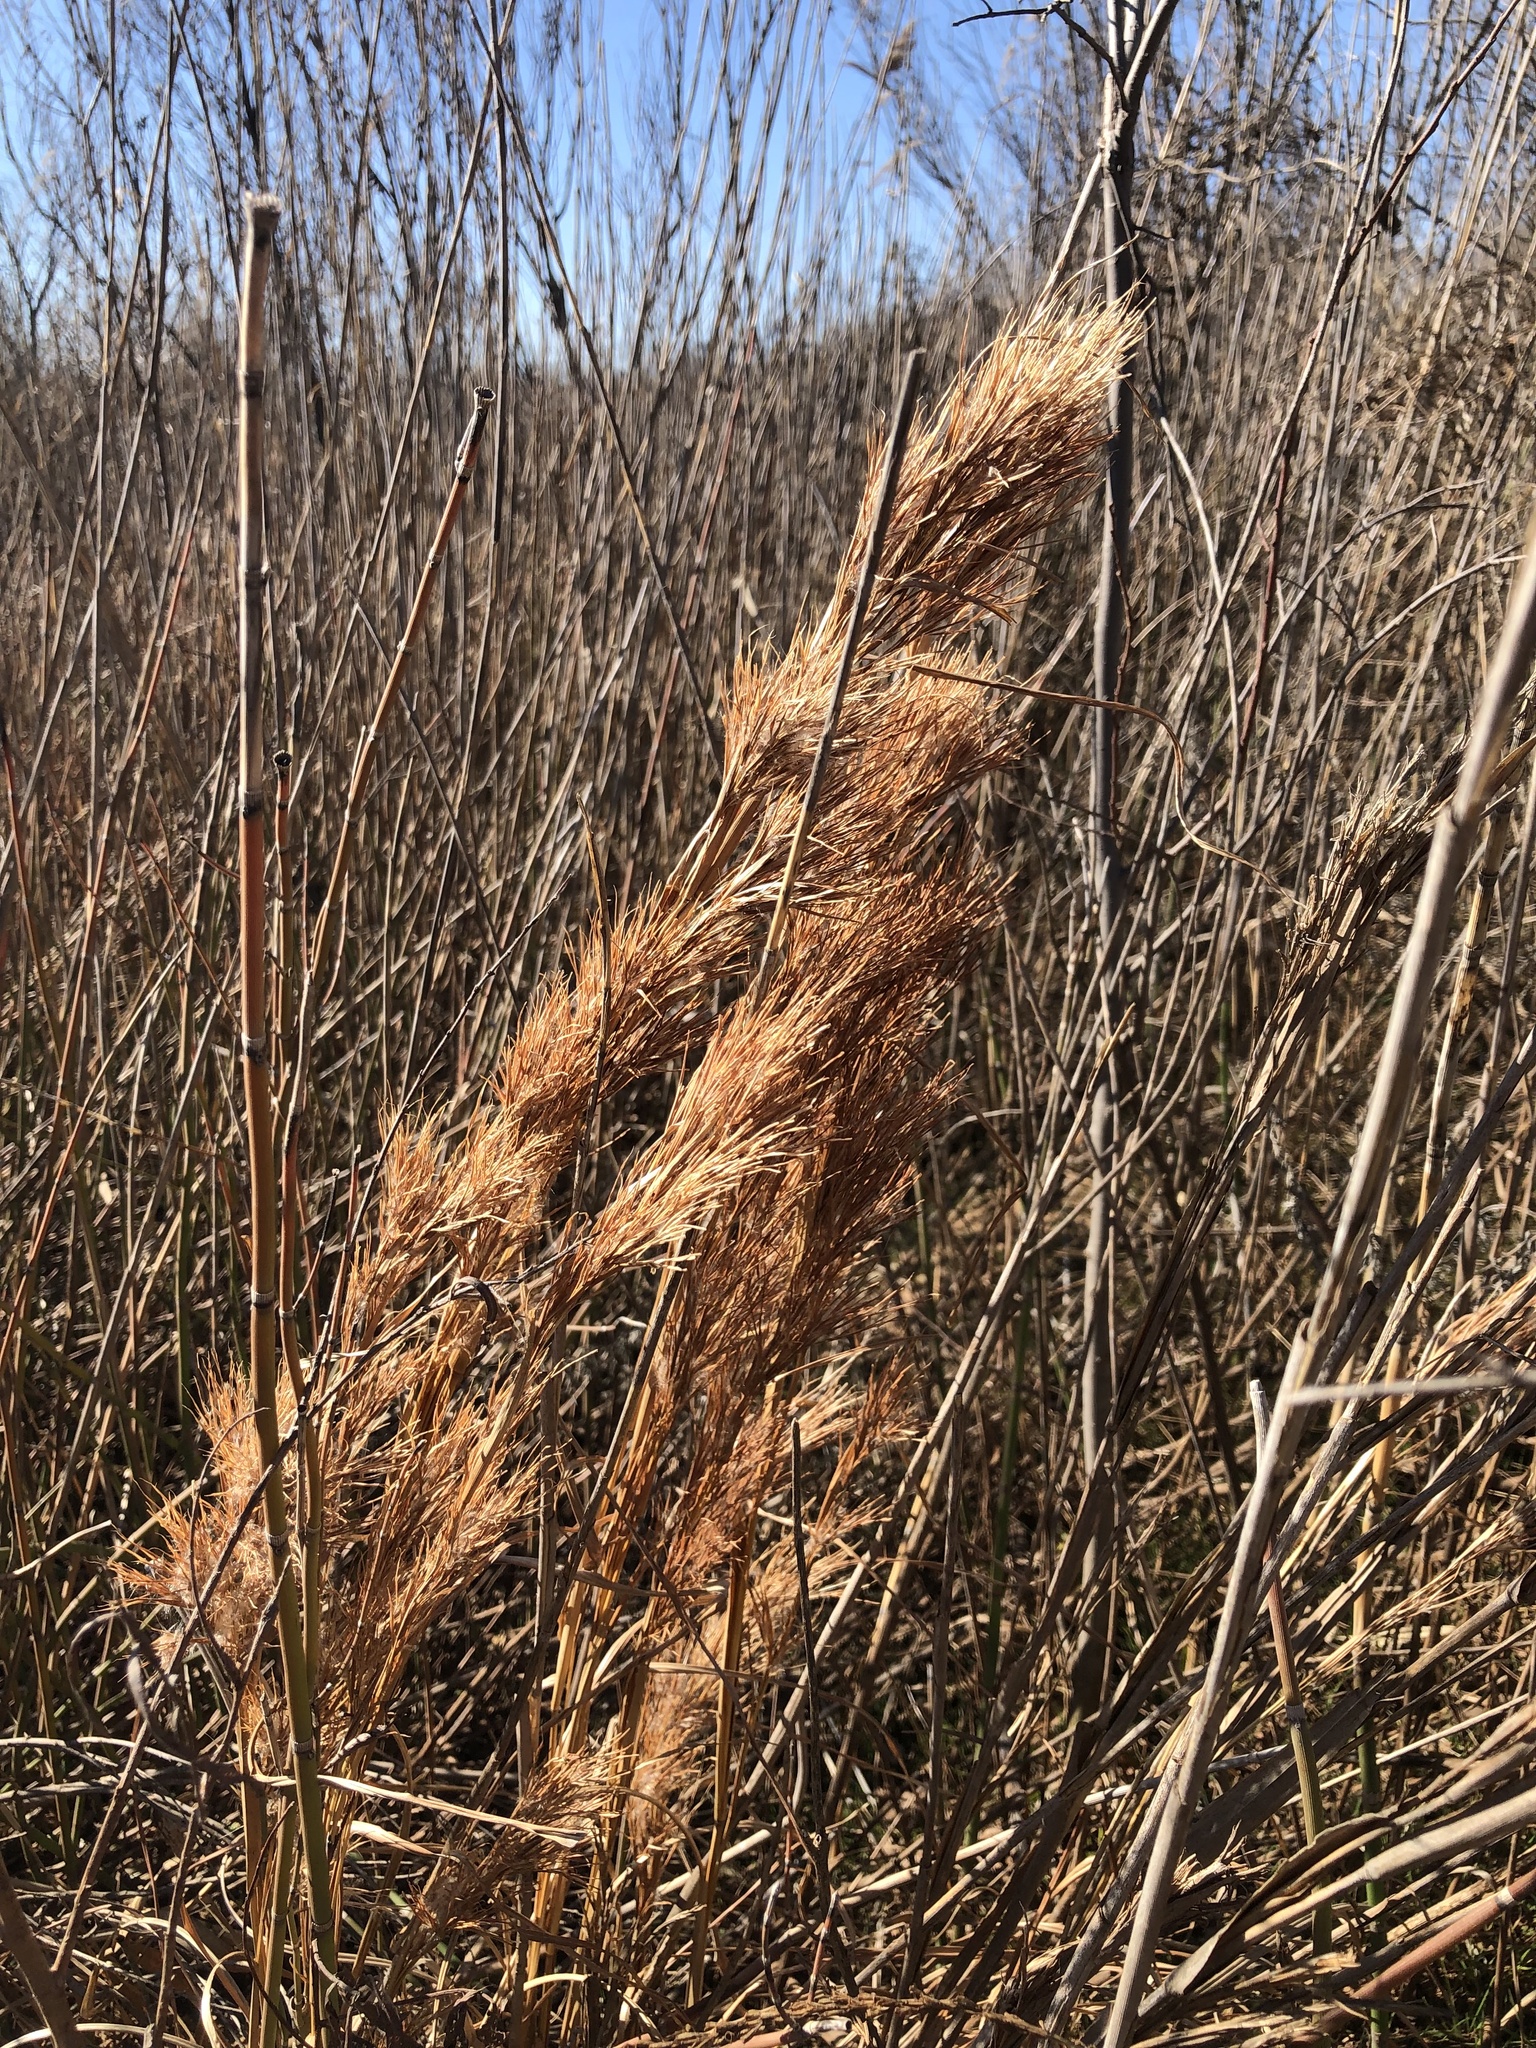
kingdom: Plantae
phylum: Tracheophyta
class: Liliopsida
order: Poales
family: Poaceae
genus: Andropogon
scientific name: Andropogon tenuispatheus
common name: Bushy bluestem
